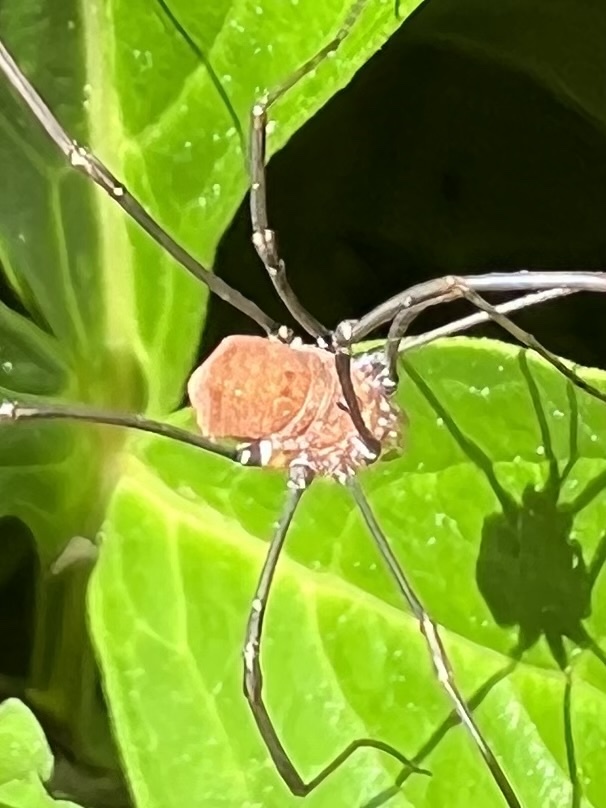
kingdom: Animalia
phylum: Arthropoda
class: Arachnida
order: Opiliones
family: Sclerosomatidae
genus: Leiobunum
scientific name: Leiobunum verrucosum
